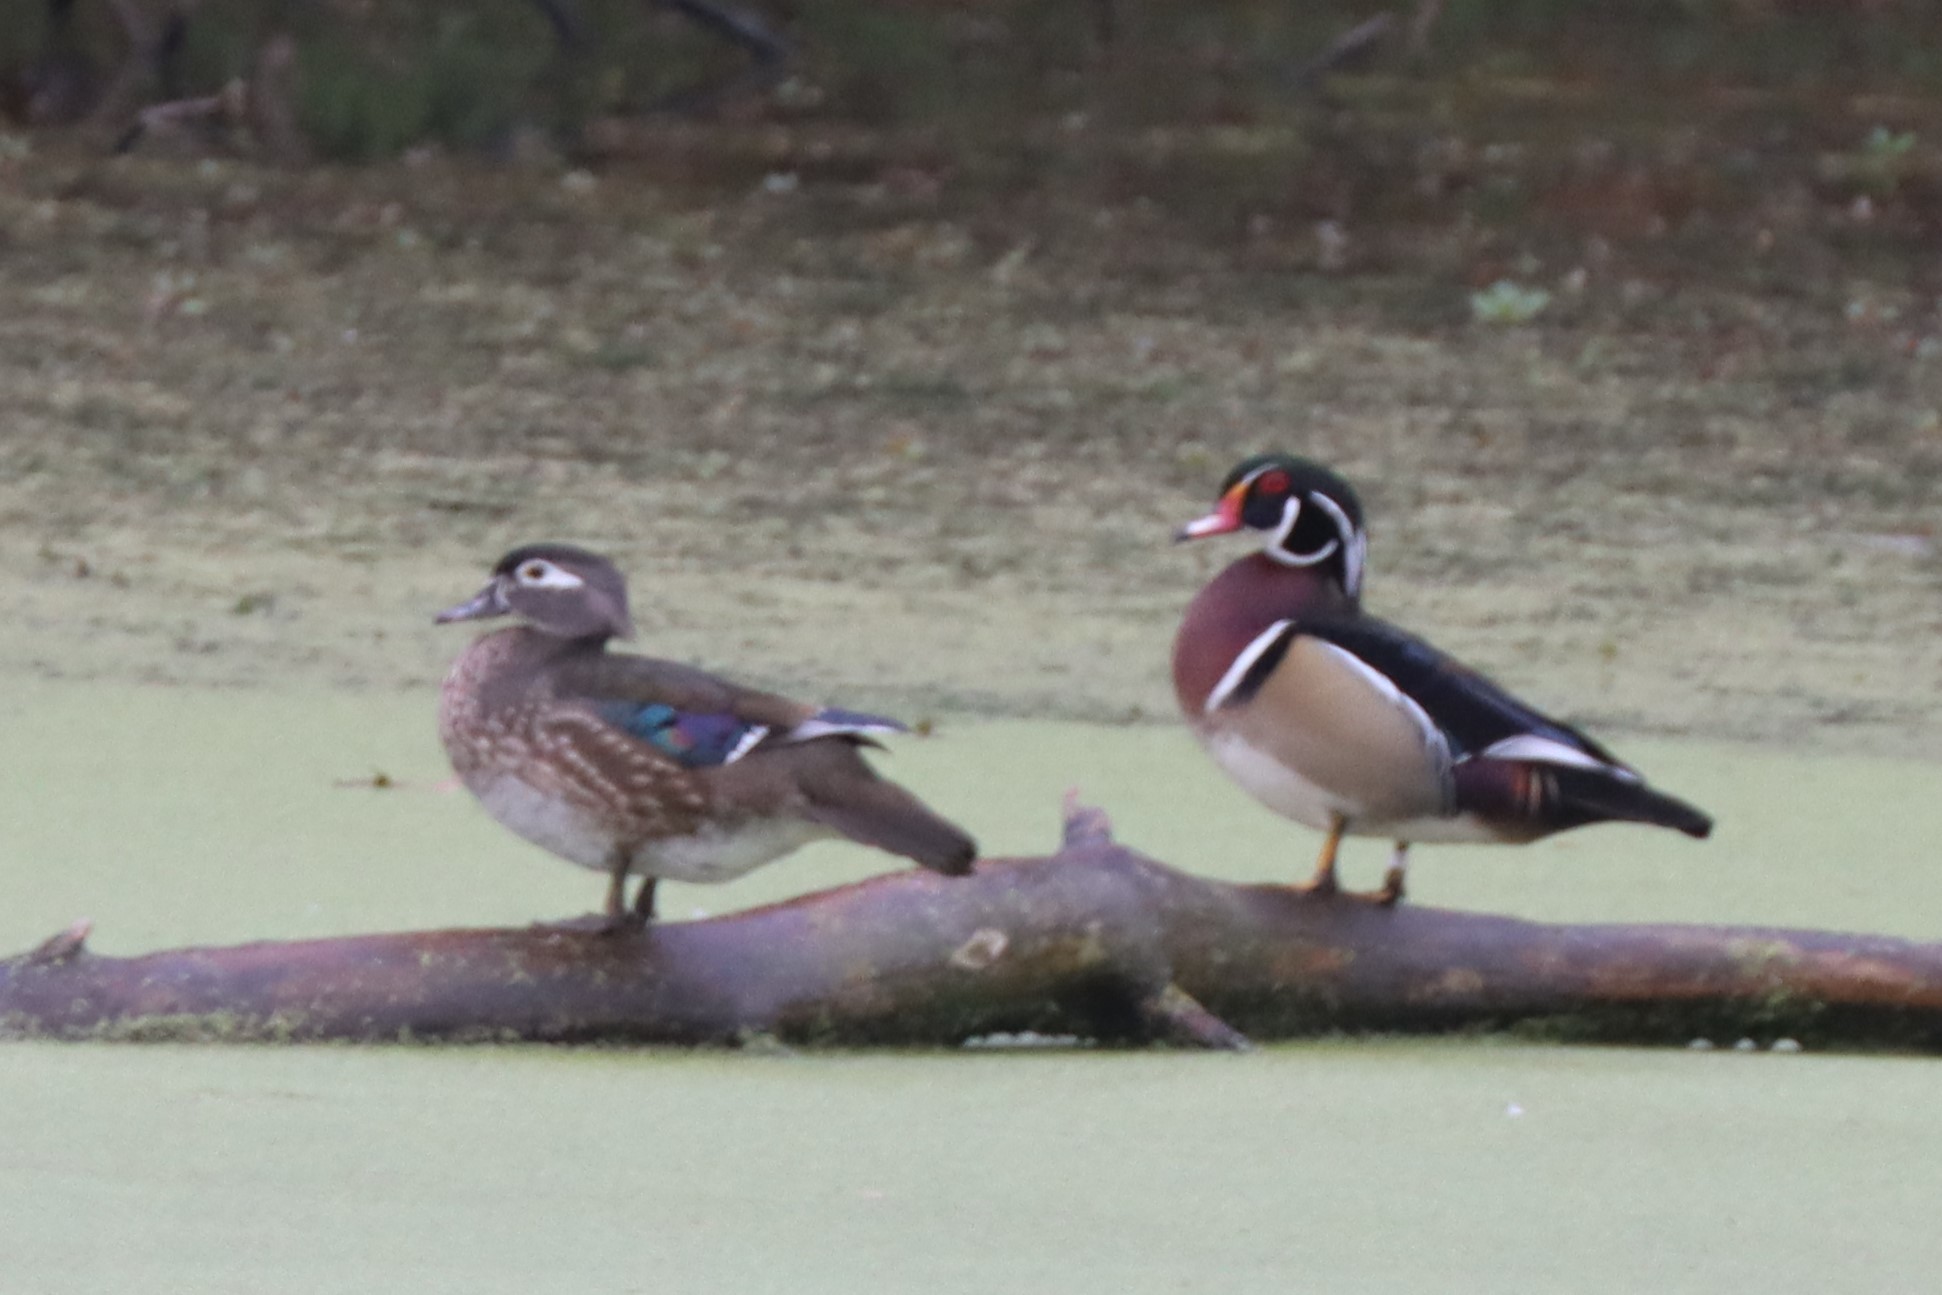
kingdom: Animalia
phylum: Chordata
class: Aves
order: Anseriformes
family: Anatidae
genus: Aix
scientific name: Aix sponsa
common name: Wood duck
